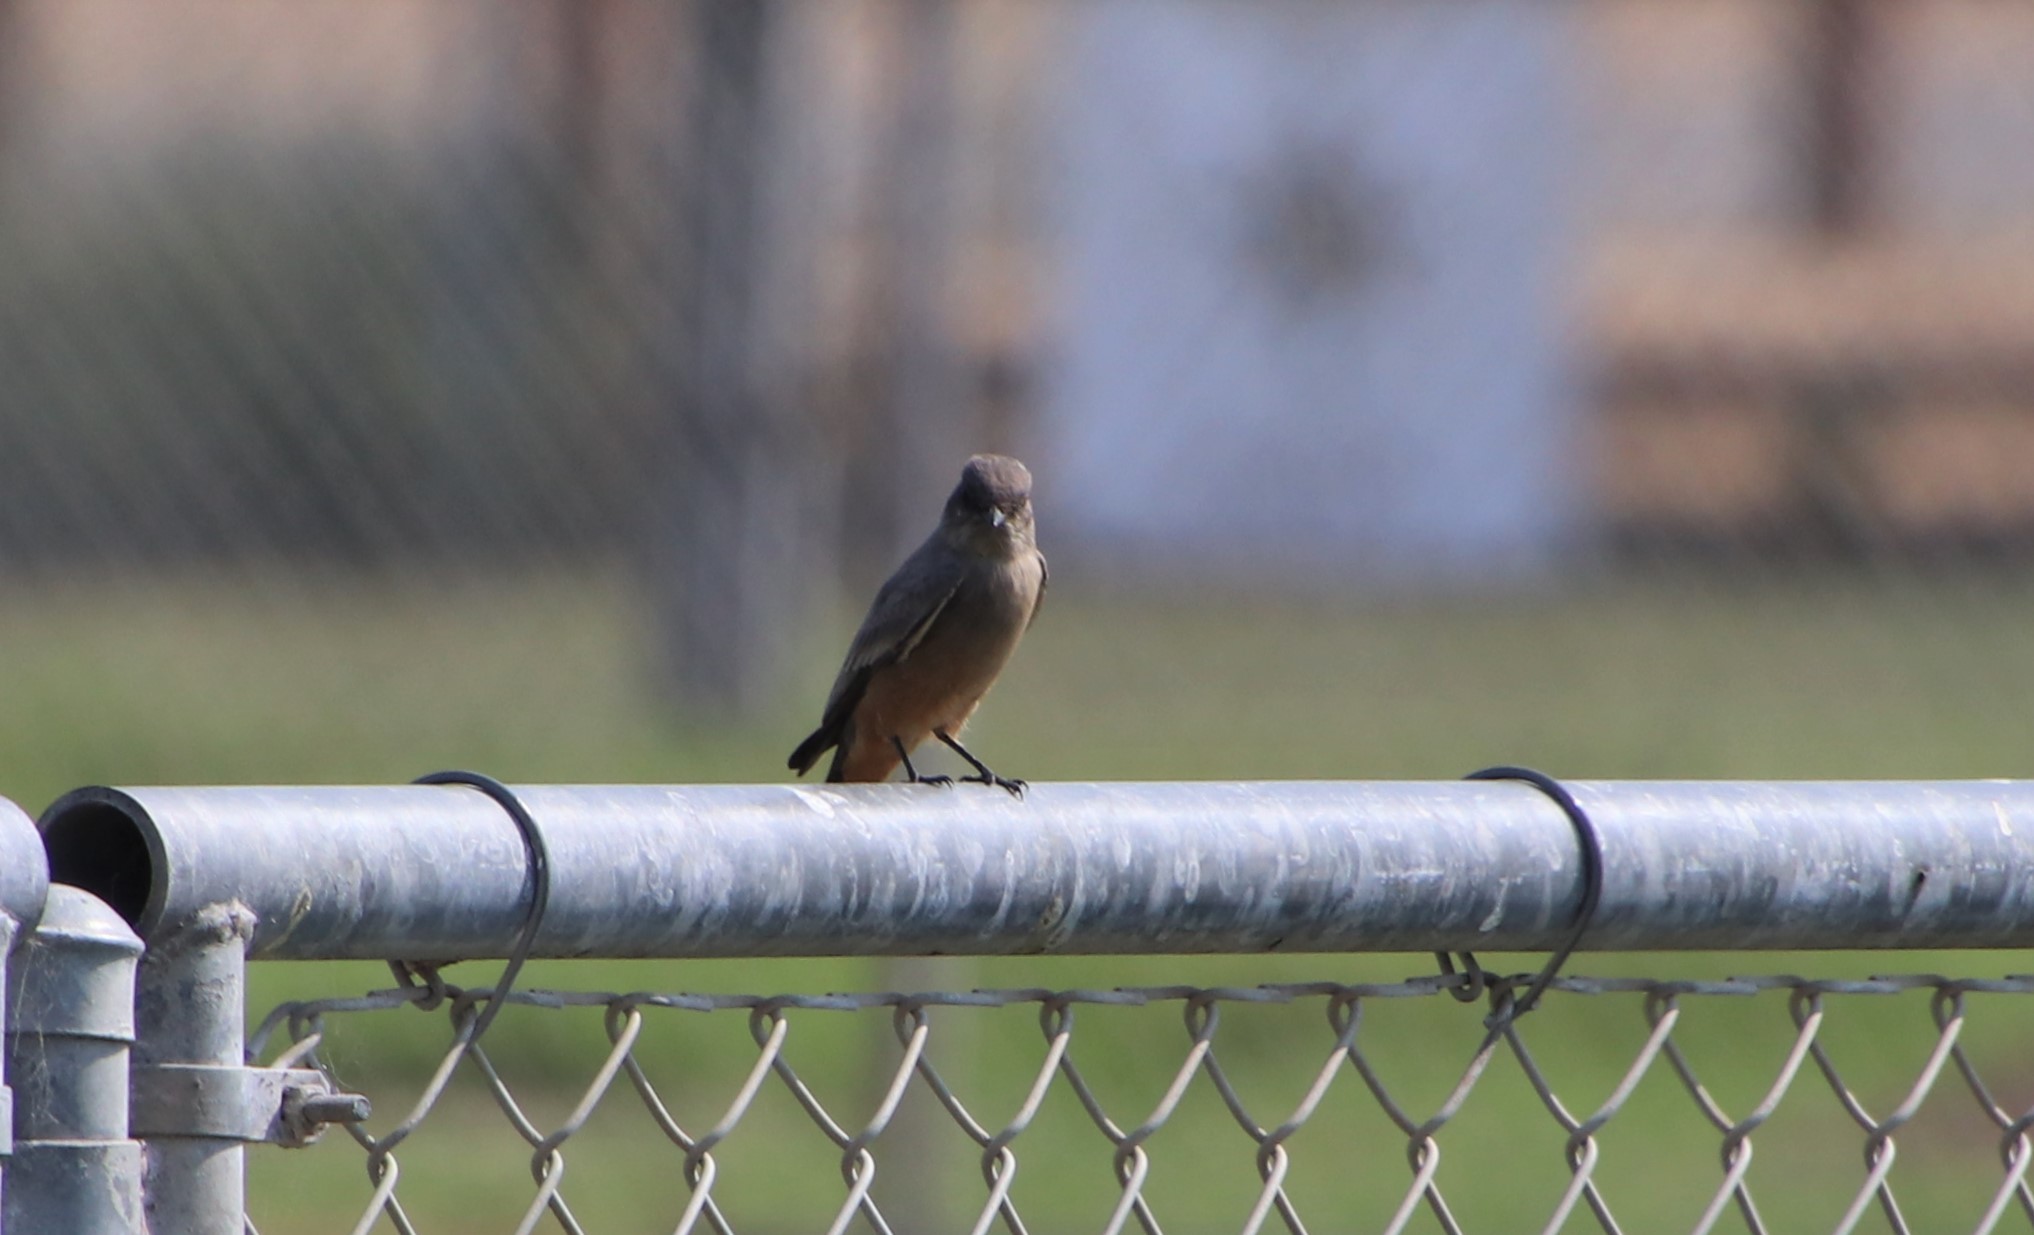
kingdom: Animalia
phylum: Chordata
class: Aves
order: Passeriformes
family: Tyrannidae
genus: Sayornis
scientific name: Sayornis saya
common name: Say's phoebe
